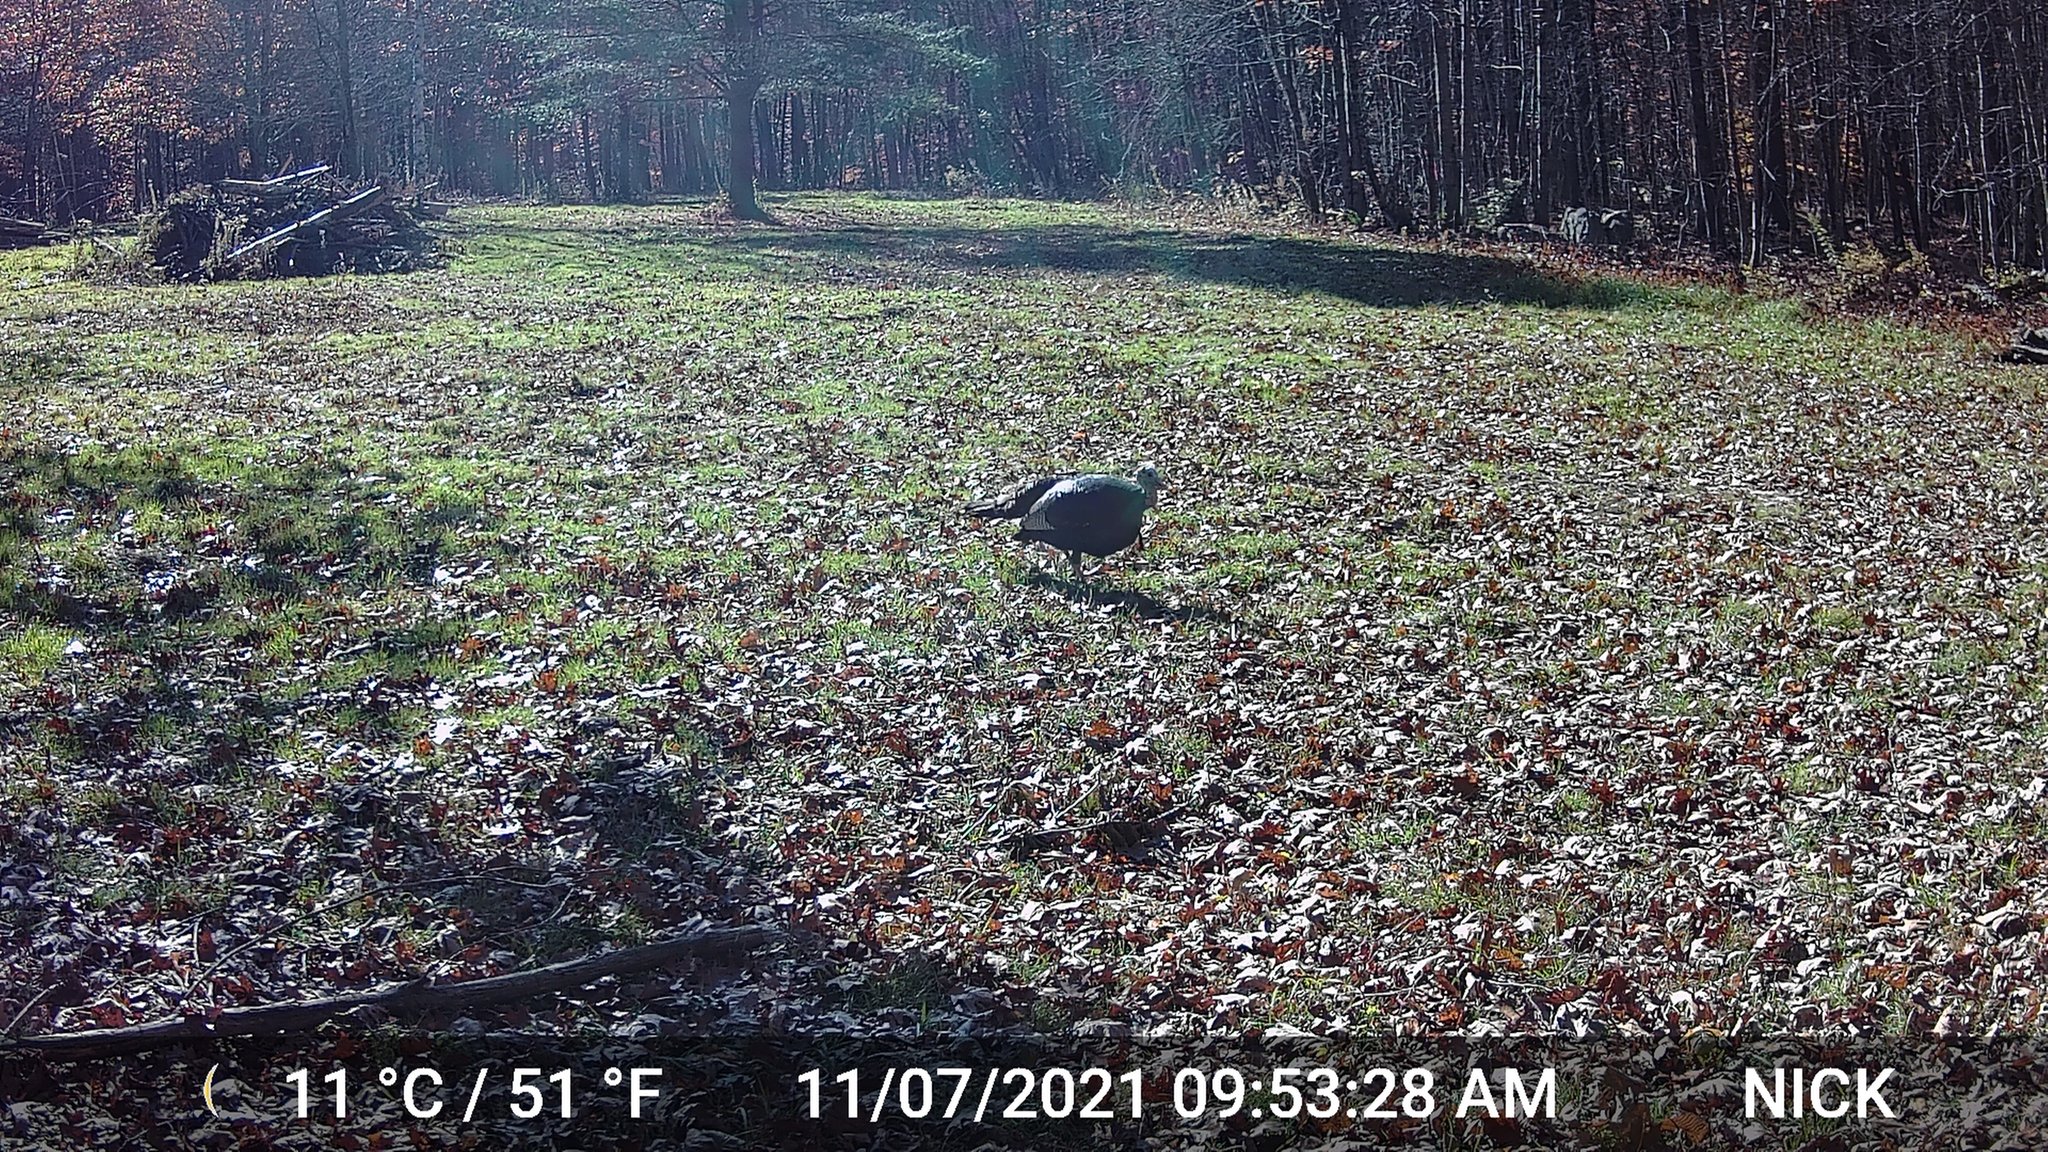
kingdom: Animalia
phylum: Chordata
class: Aves
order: Galliformes
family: Phasianidae
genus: Meleagris
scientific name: Meleagris gallopavo
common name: Wild turkey
